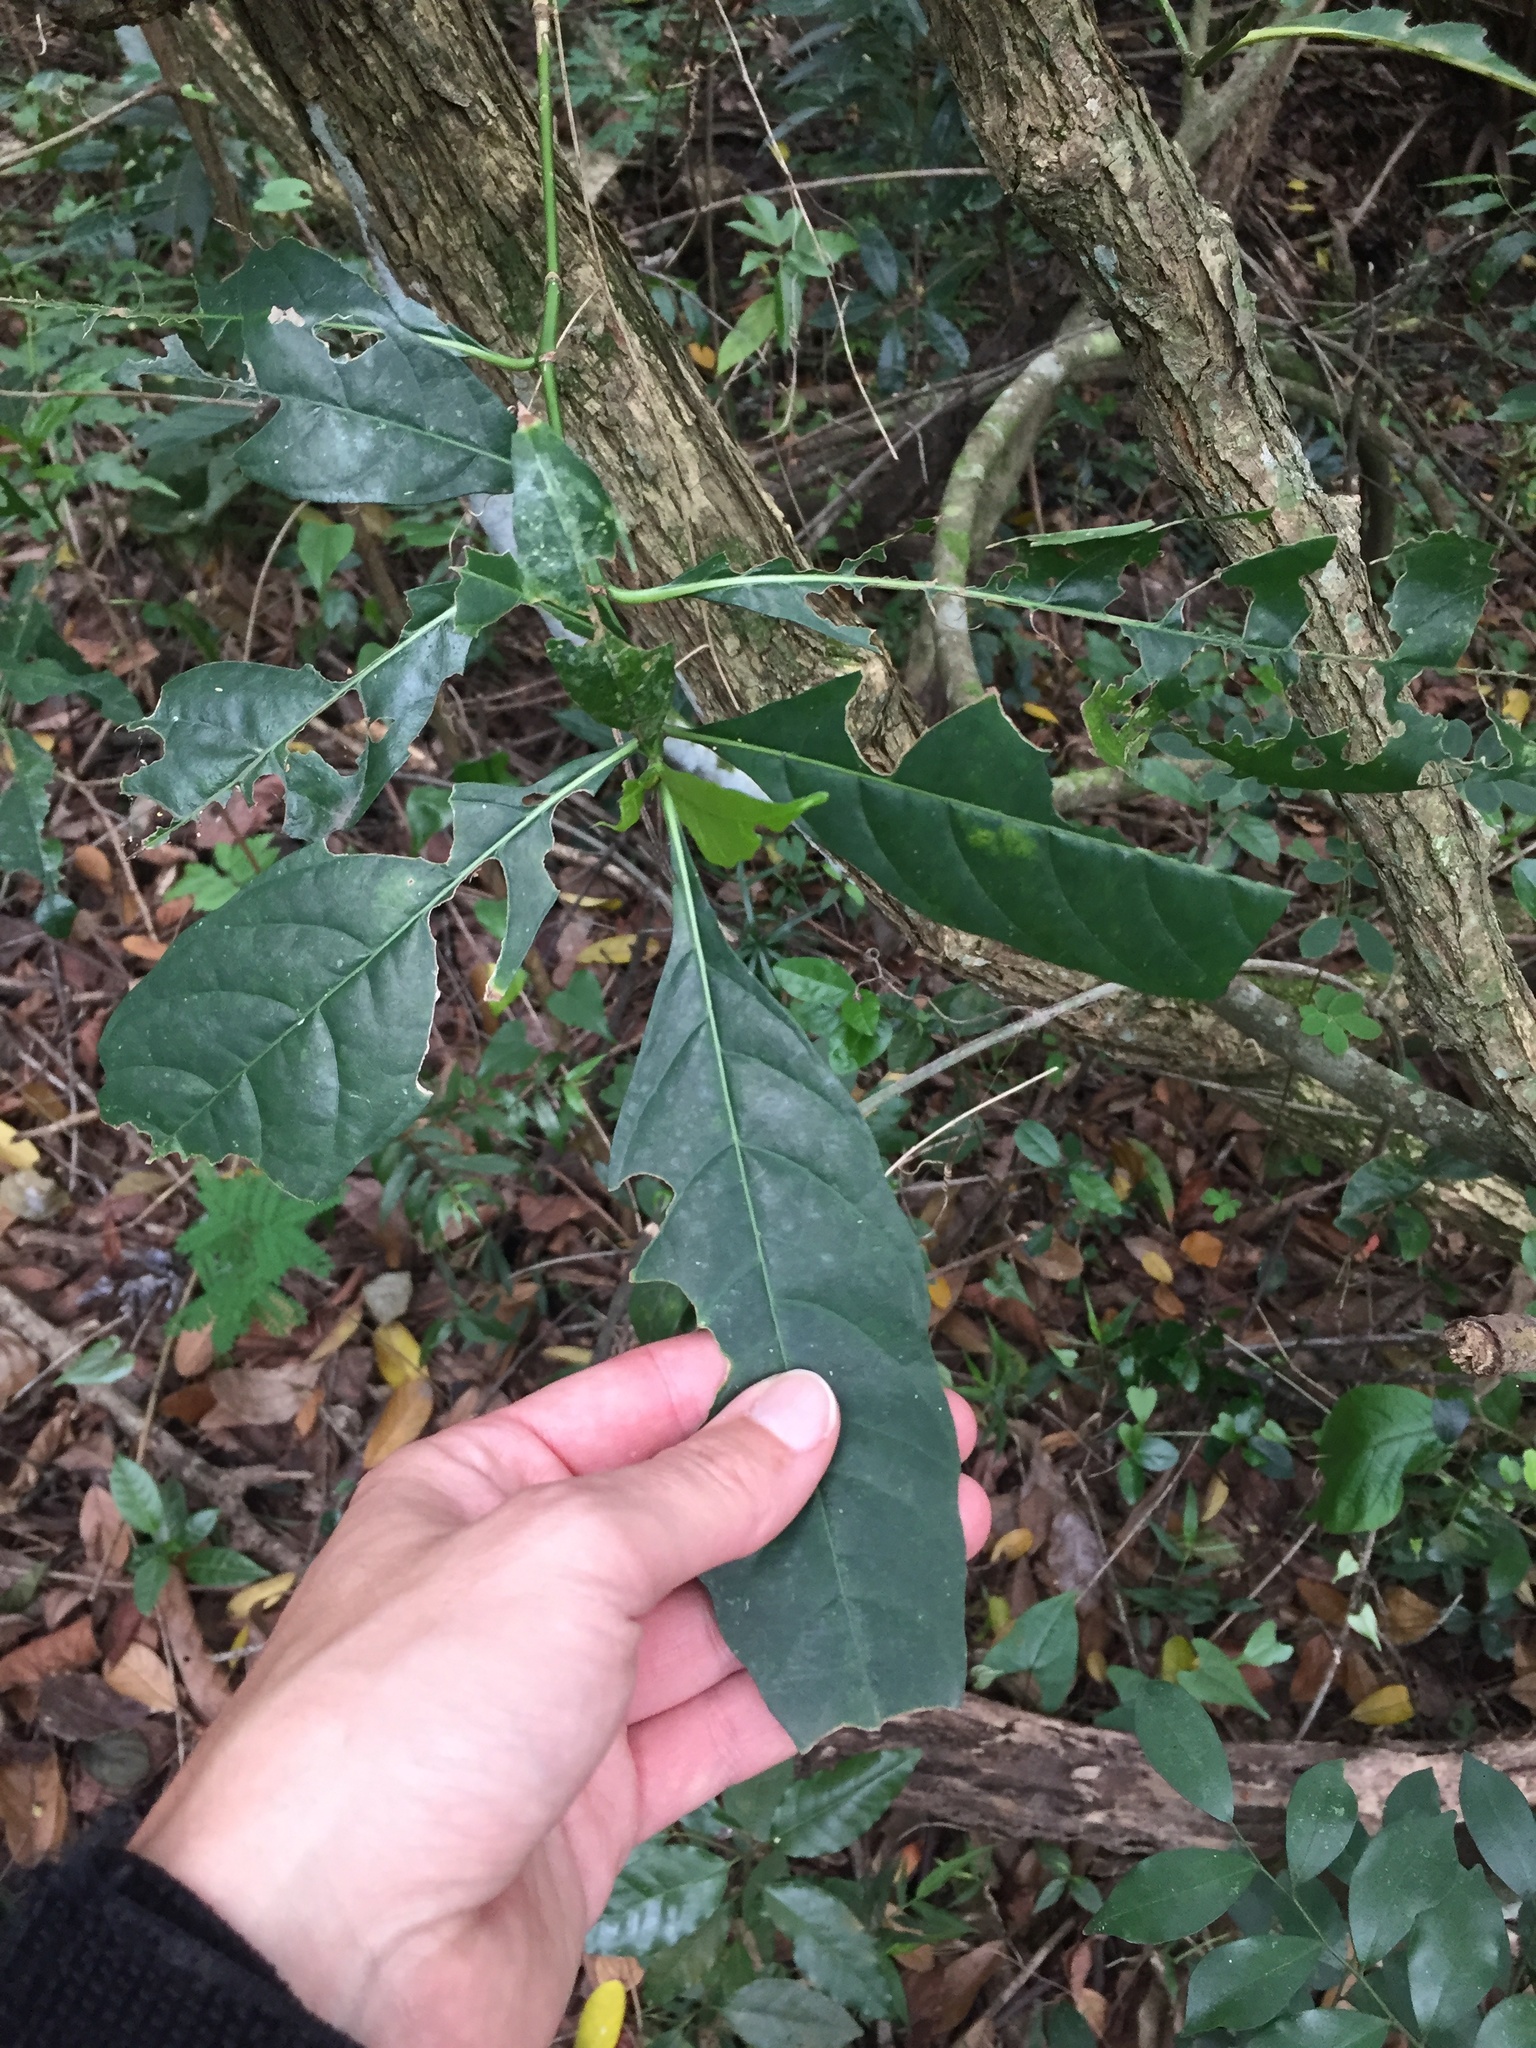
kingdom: Plantae
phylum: Tracheophyta
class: Magnoliopsida
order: Gentianales
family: Rubiaceae
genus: Tarenna
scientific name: Tarenna pavettoides
